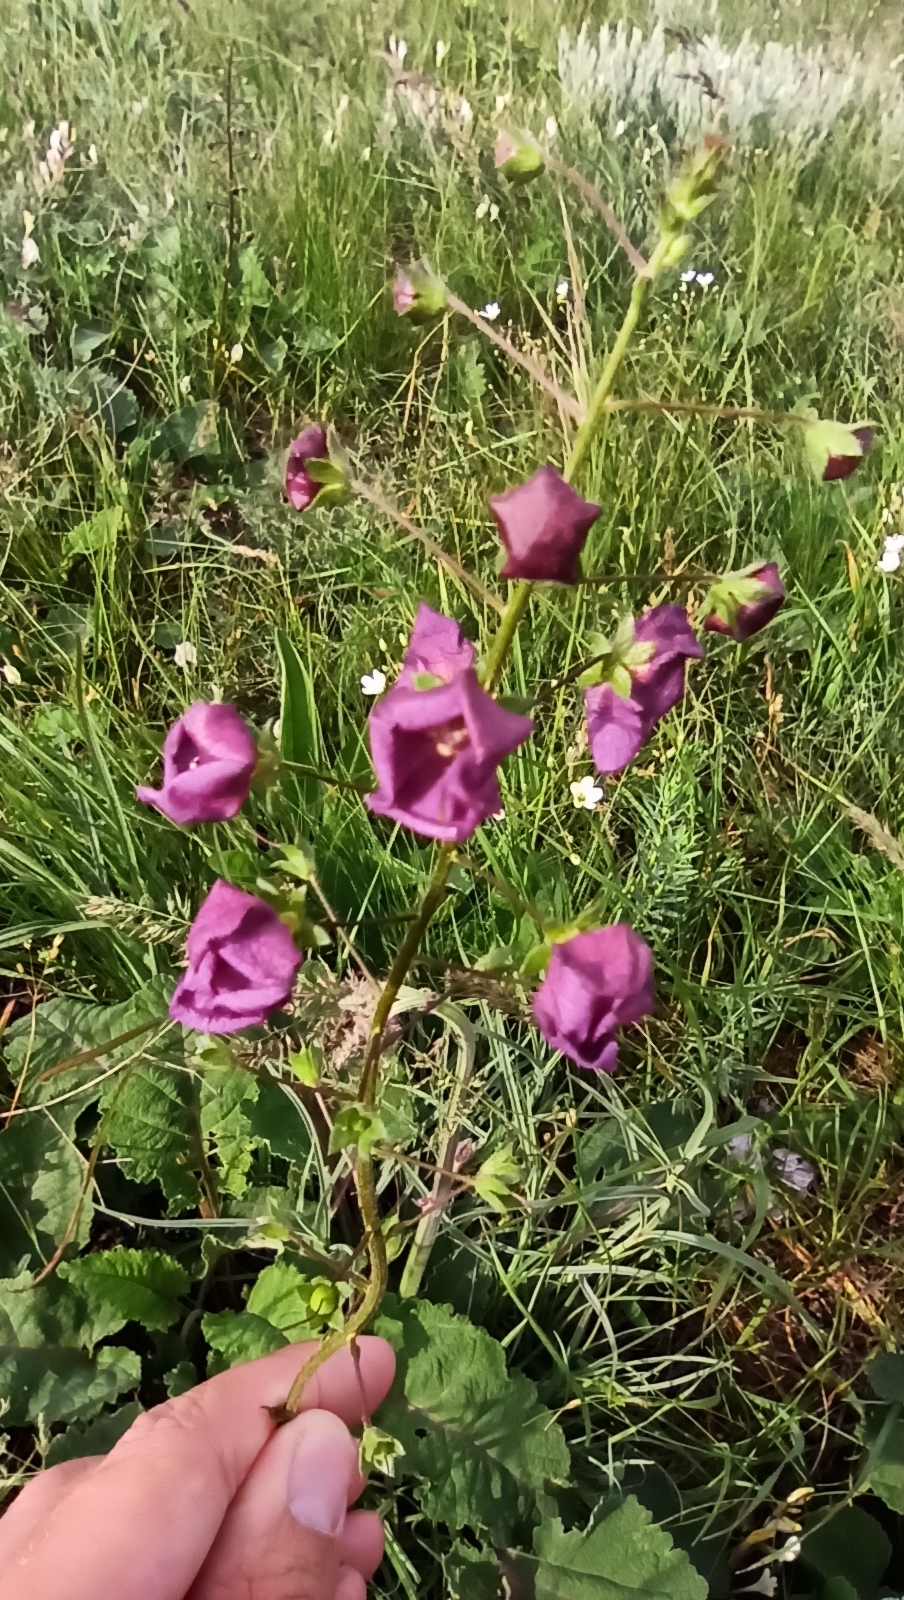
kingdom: Plantae
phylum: Tracheophyta
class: Magnoliopsida
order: Lamiales
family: Scrophulariaceae
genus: Verbascum
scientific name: Verbascum phoeniceum
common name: Purple mullein
